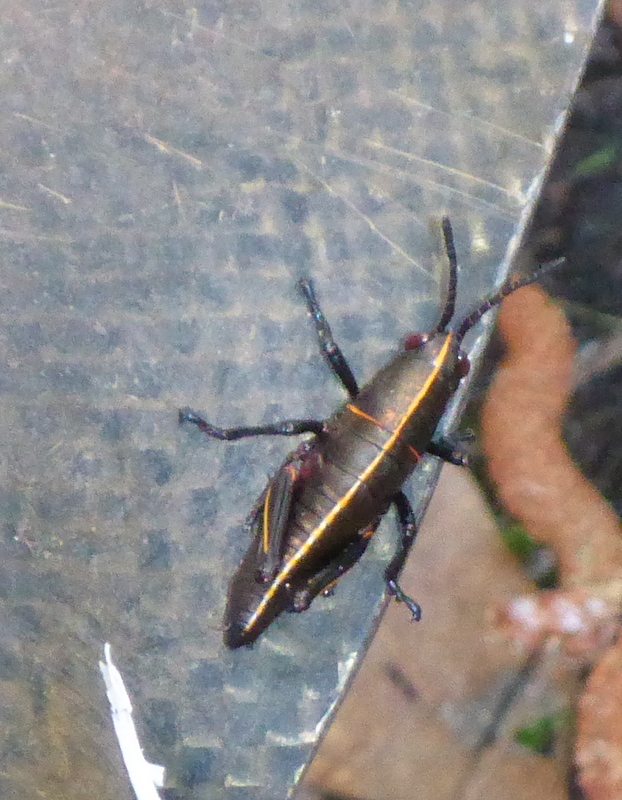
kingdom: Animalia
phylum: Arthropoda
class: Insecta
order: Orthoptera
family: Romaleidae
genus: Romalea
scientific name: Romalea microptera
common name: Eastern lubber grasshopper
